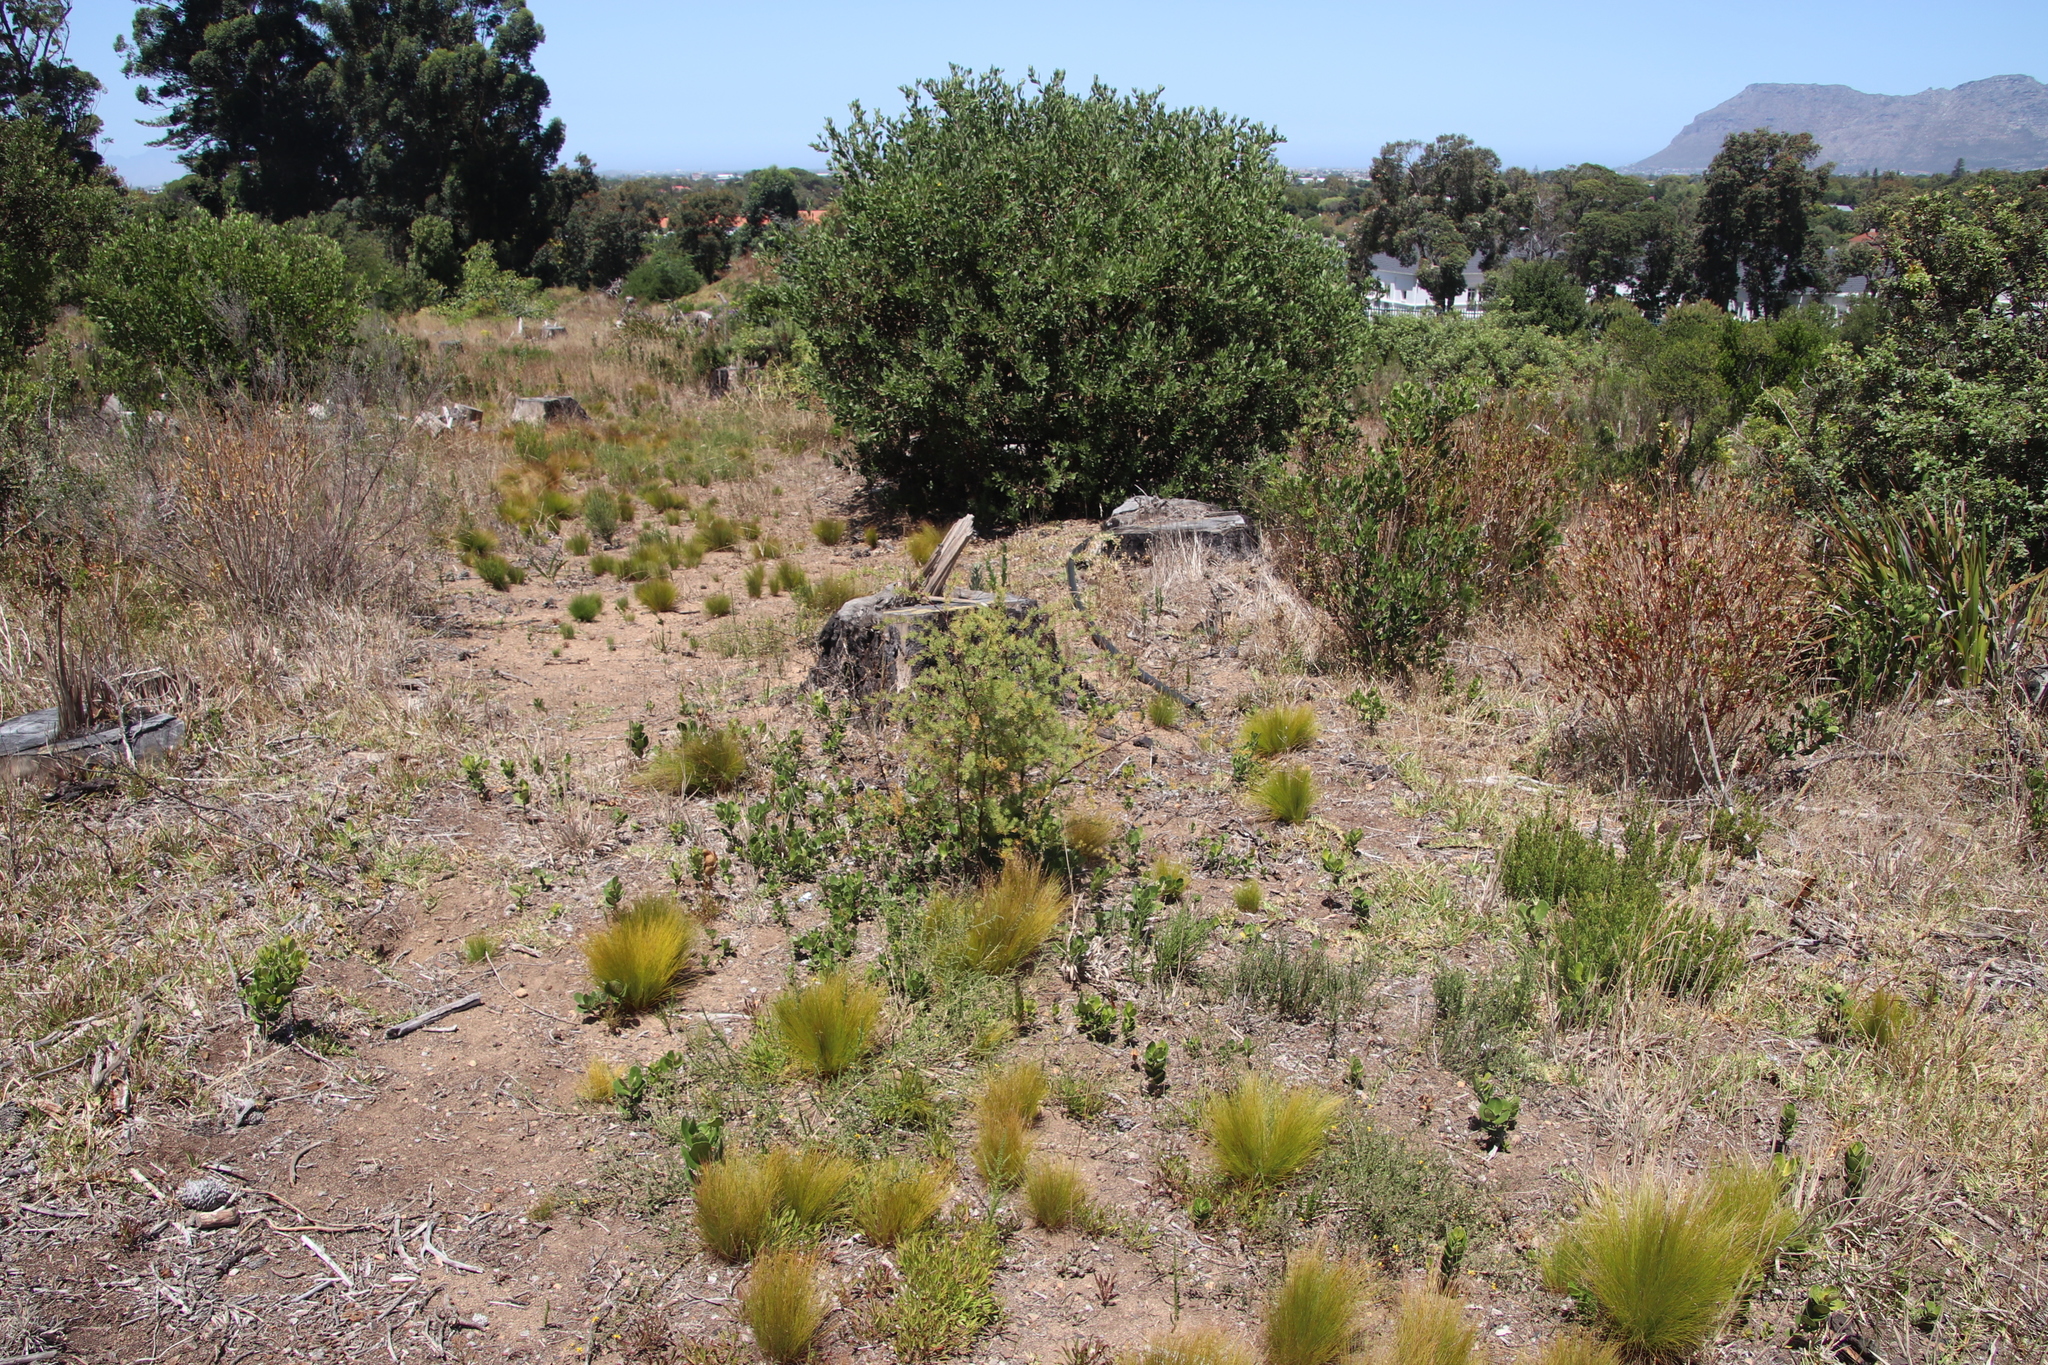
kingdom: Plantae
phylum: Tracheophyta
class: Liliopsida
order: Asparagales
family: Asparagaceae
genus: Asparagus
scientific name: Asparagus rubicundus
